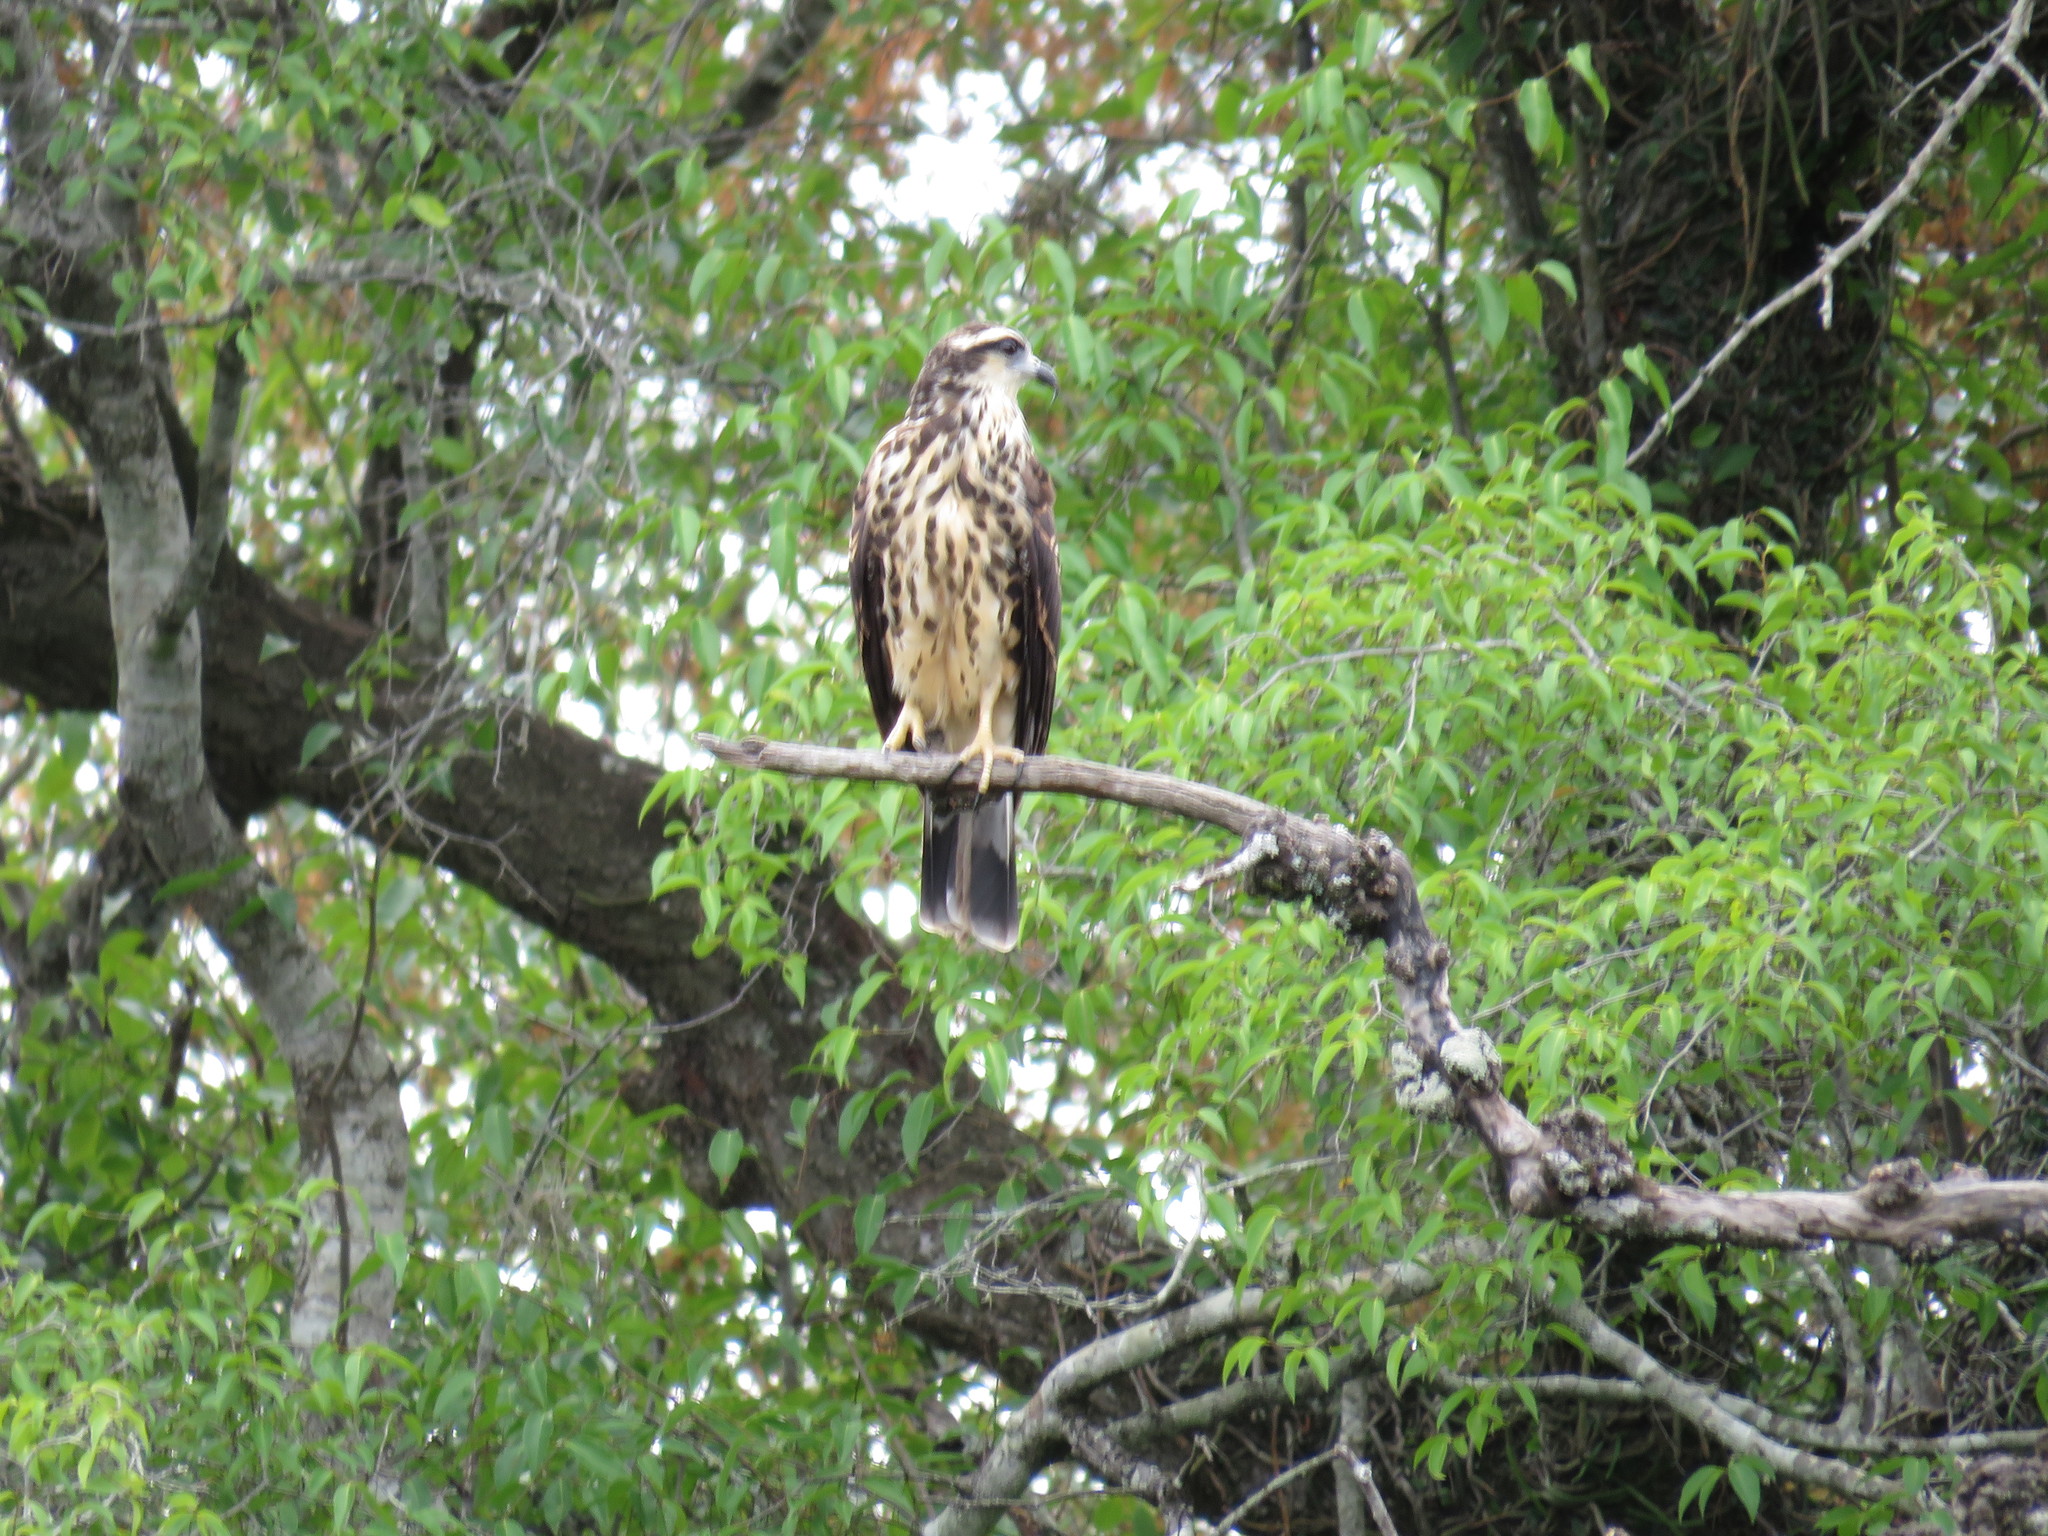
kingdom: Animalia
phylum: Chordata
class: Aves
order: Accipitriformes
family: Accipitridae
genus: Rostrhamus
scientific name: Rostrhamus sociabilis
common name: Snail kite
